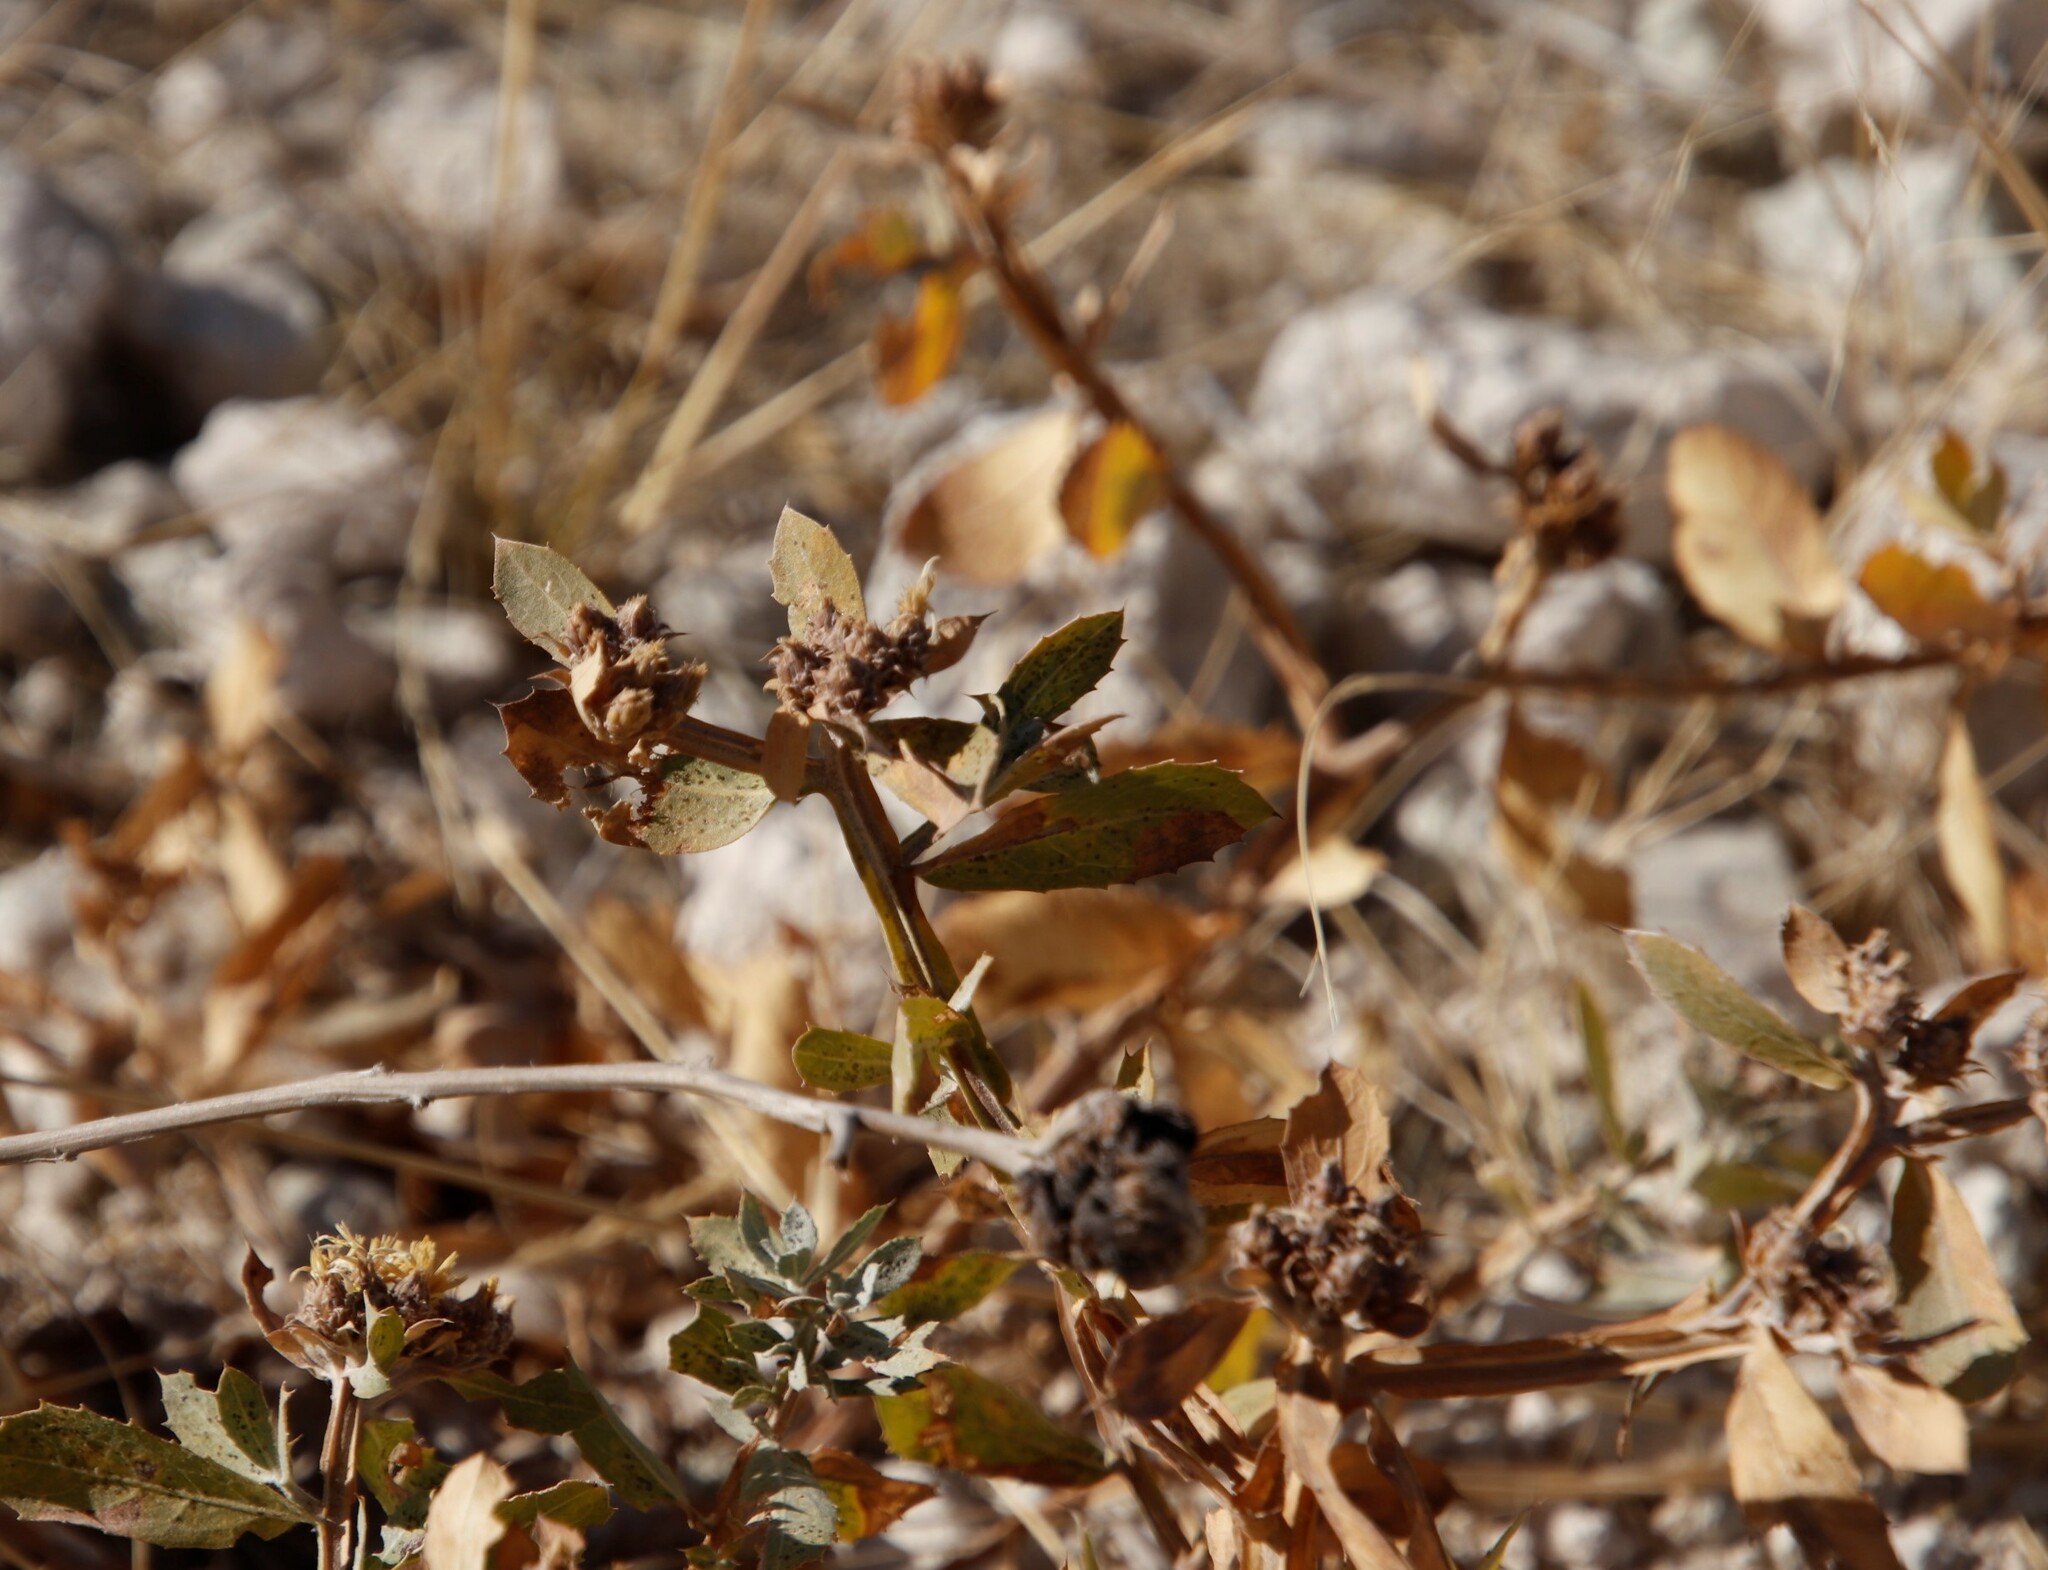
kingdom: Plantae
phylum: Tracheophyta
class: Magnoliopsida
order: Asterales
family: Asteraceae
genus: Geigeria
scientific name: Geigeria odontoptera
